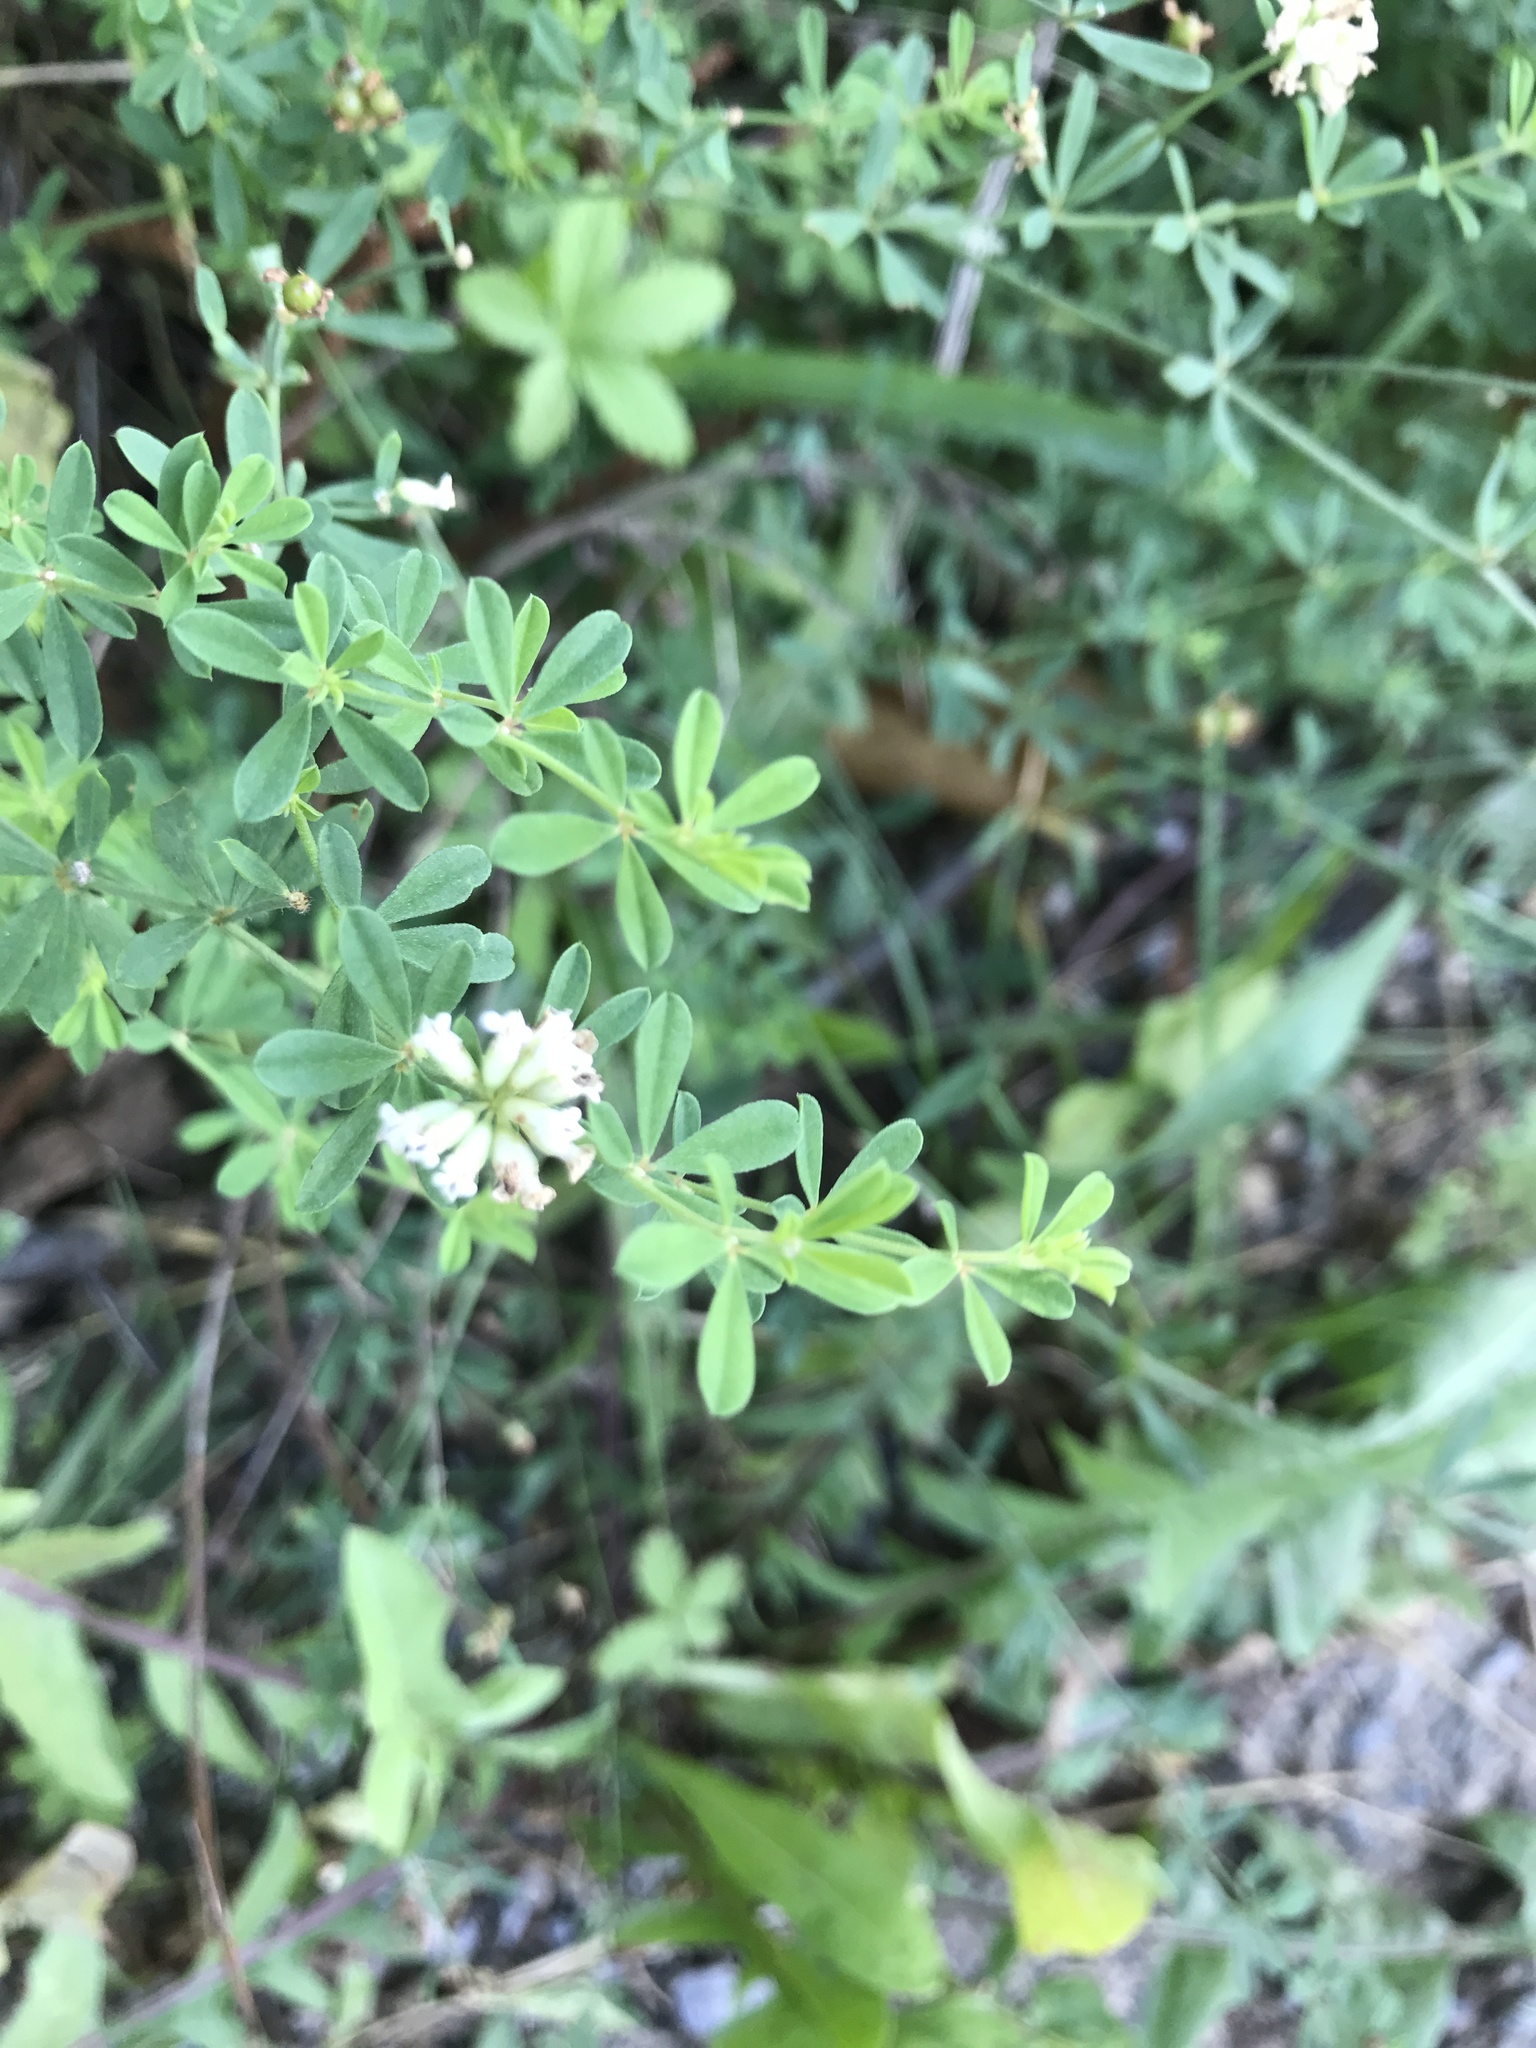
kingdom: Plantae
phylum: Tracheophyta
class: Magnoliopsida
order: Fabales
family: Fabaceae
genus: Lotus
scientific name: Lotus dorycnium
